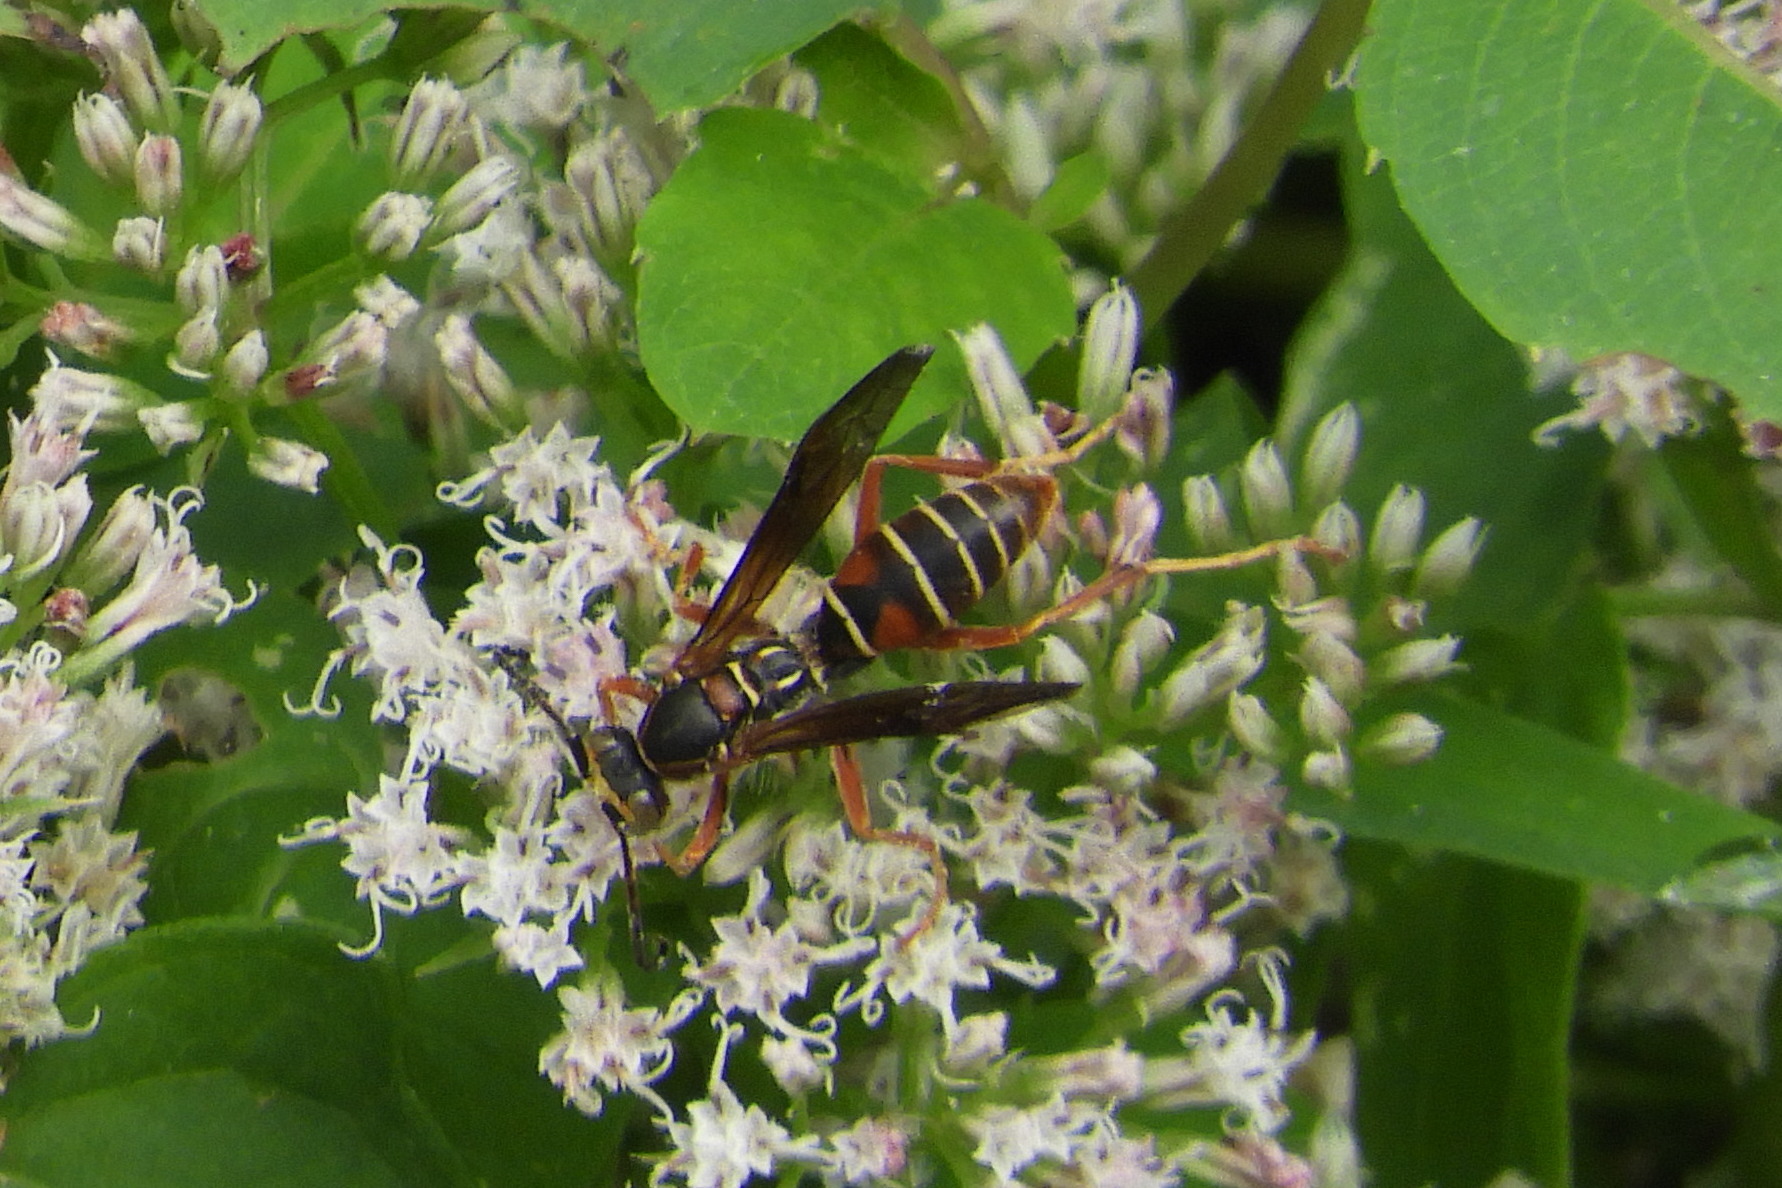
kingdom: Animalia
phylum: Arthropoda
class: Insecta
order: Hymenoptera
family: Eumenidae
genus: Polistes
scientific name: Polistes fuscatus
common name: Dark paper wasp
